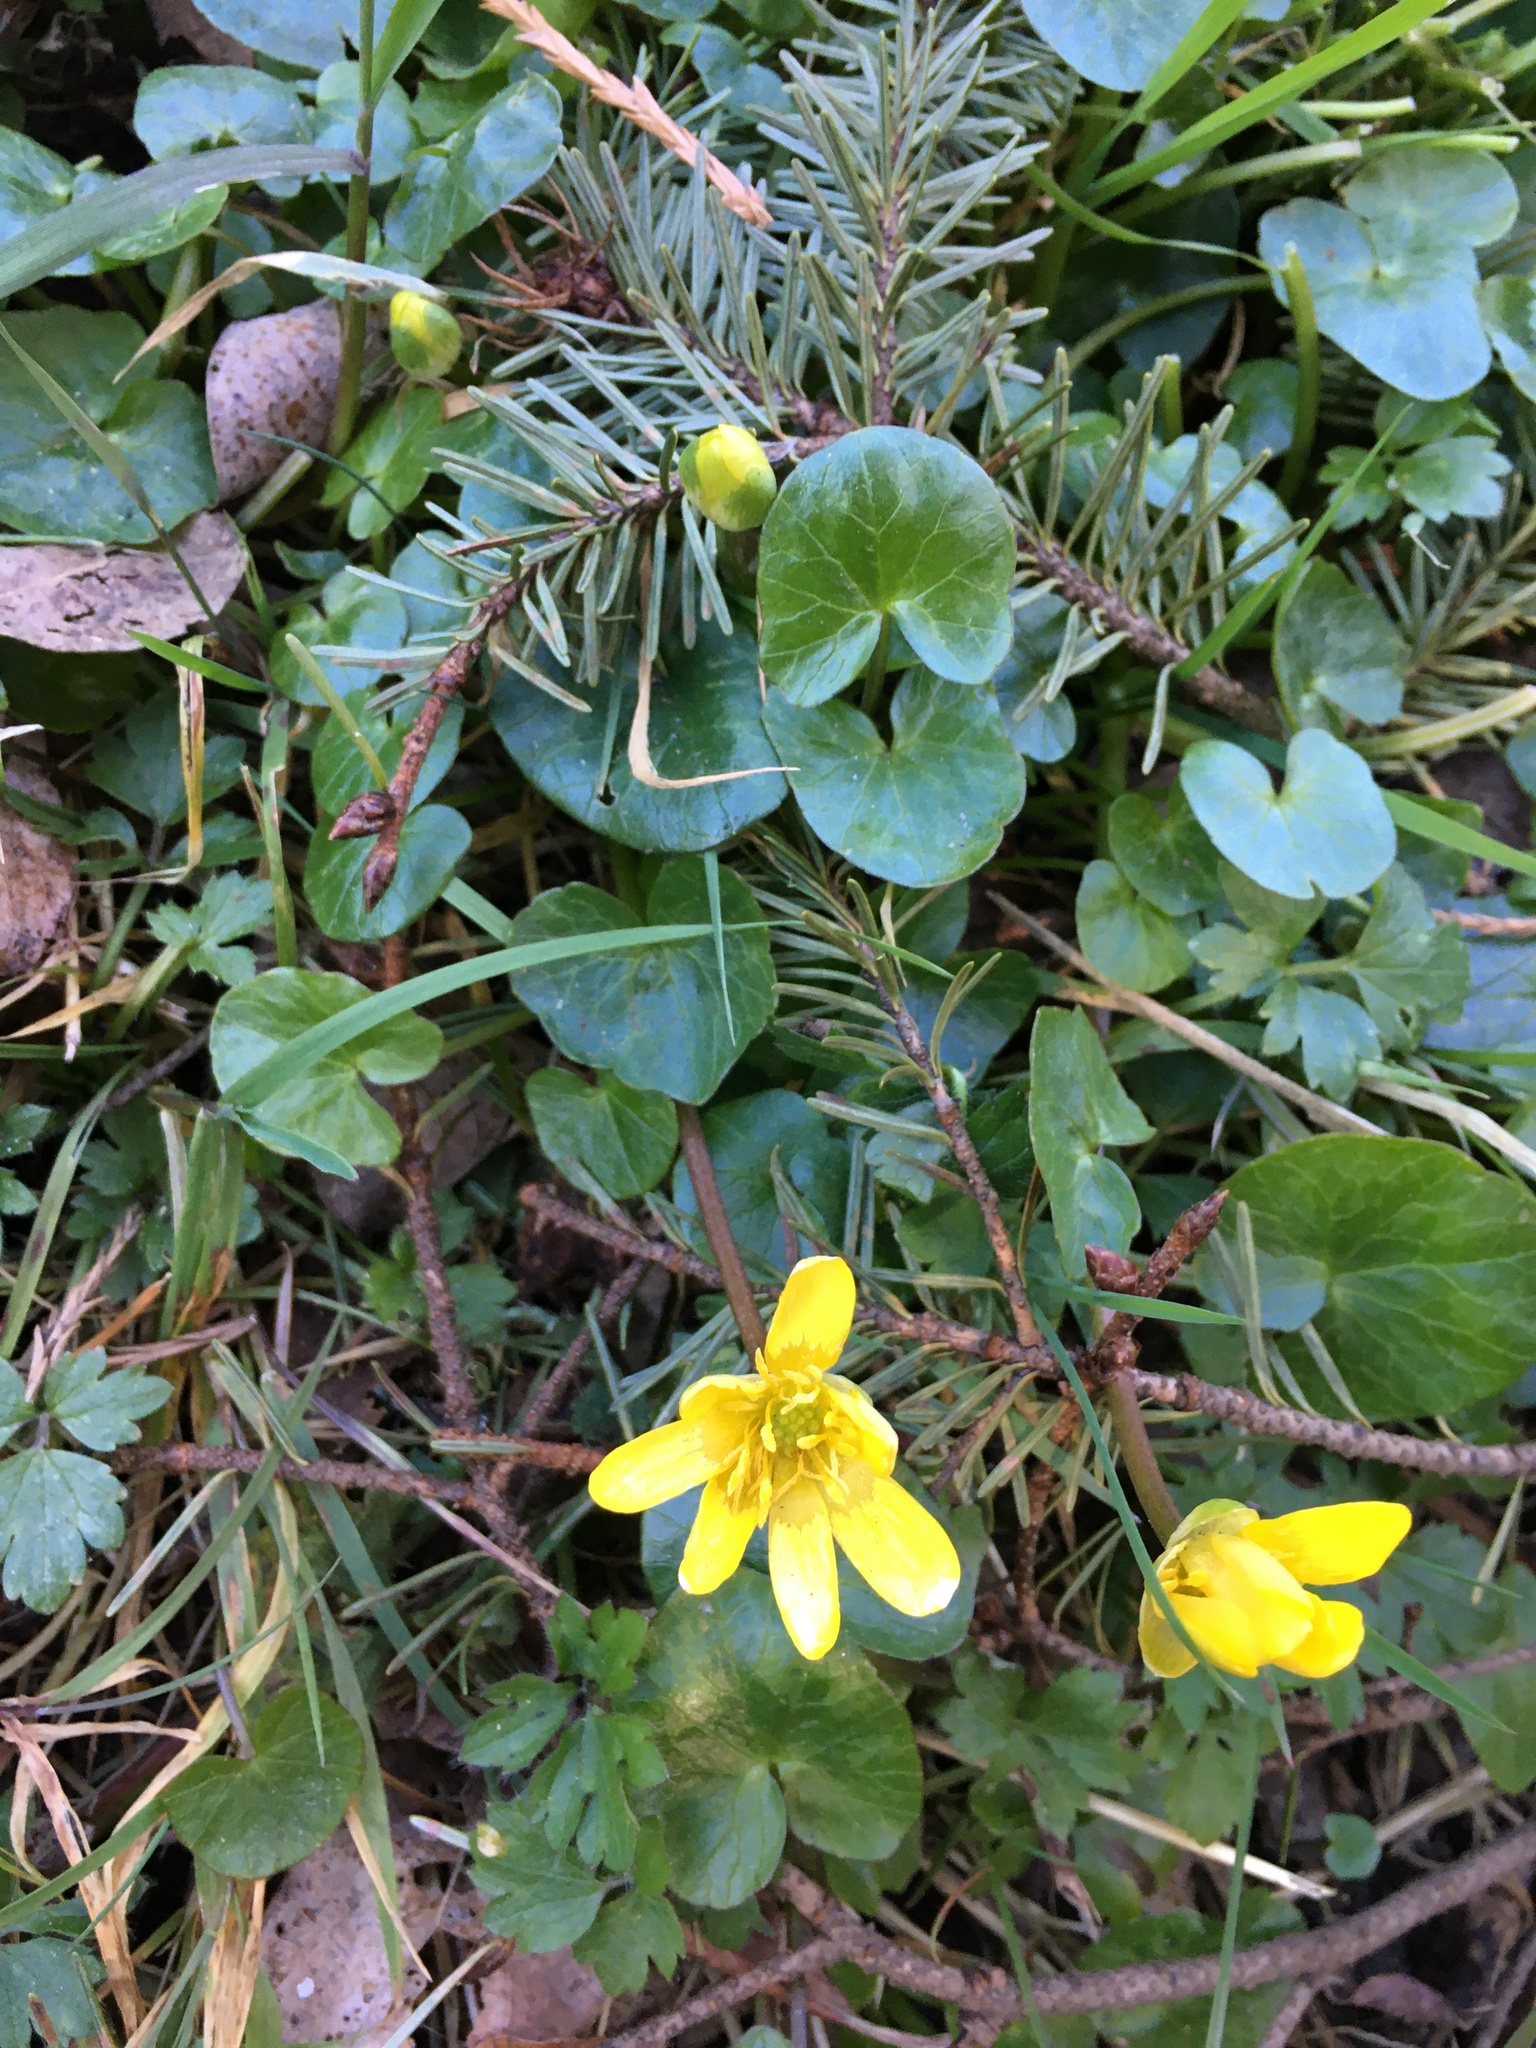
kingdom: Plantae
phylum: Tracheophyta
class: Magnoliopsida
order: Ranunculales
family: Ranunculaceae
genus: Ficaria
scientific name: Ficaria verna
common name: Lesser celandine
